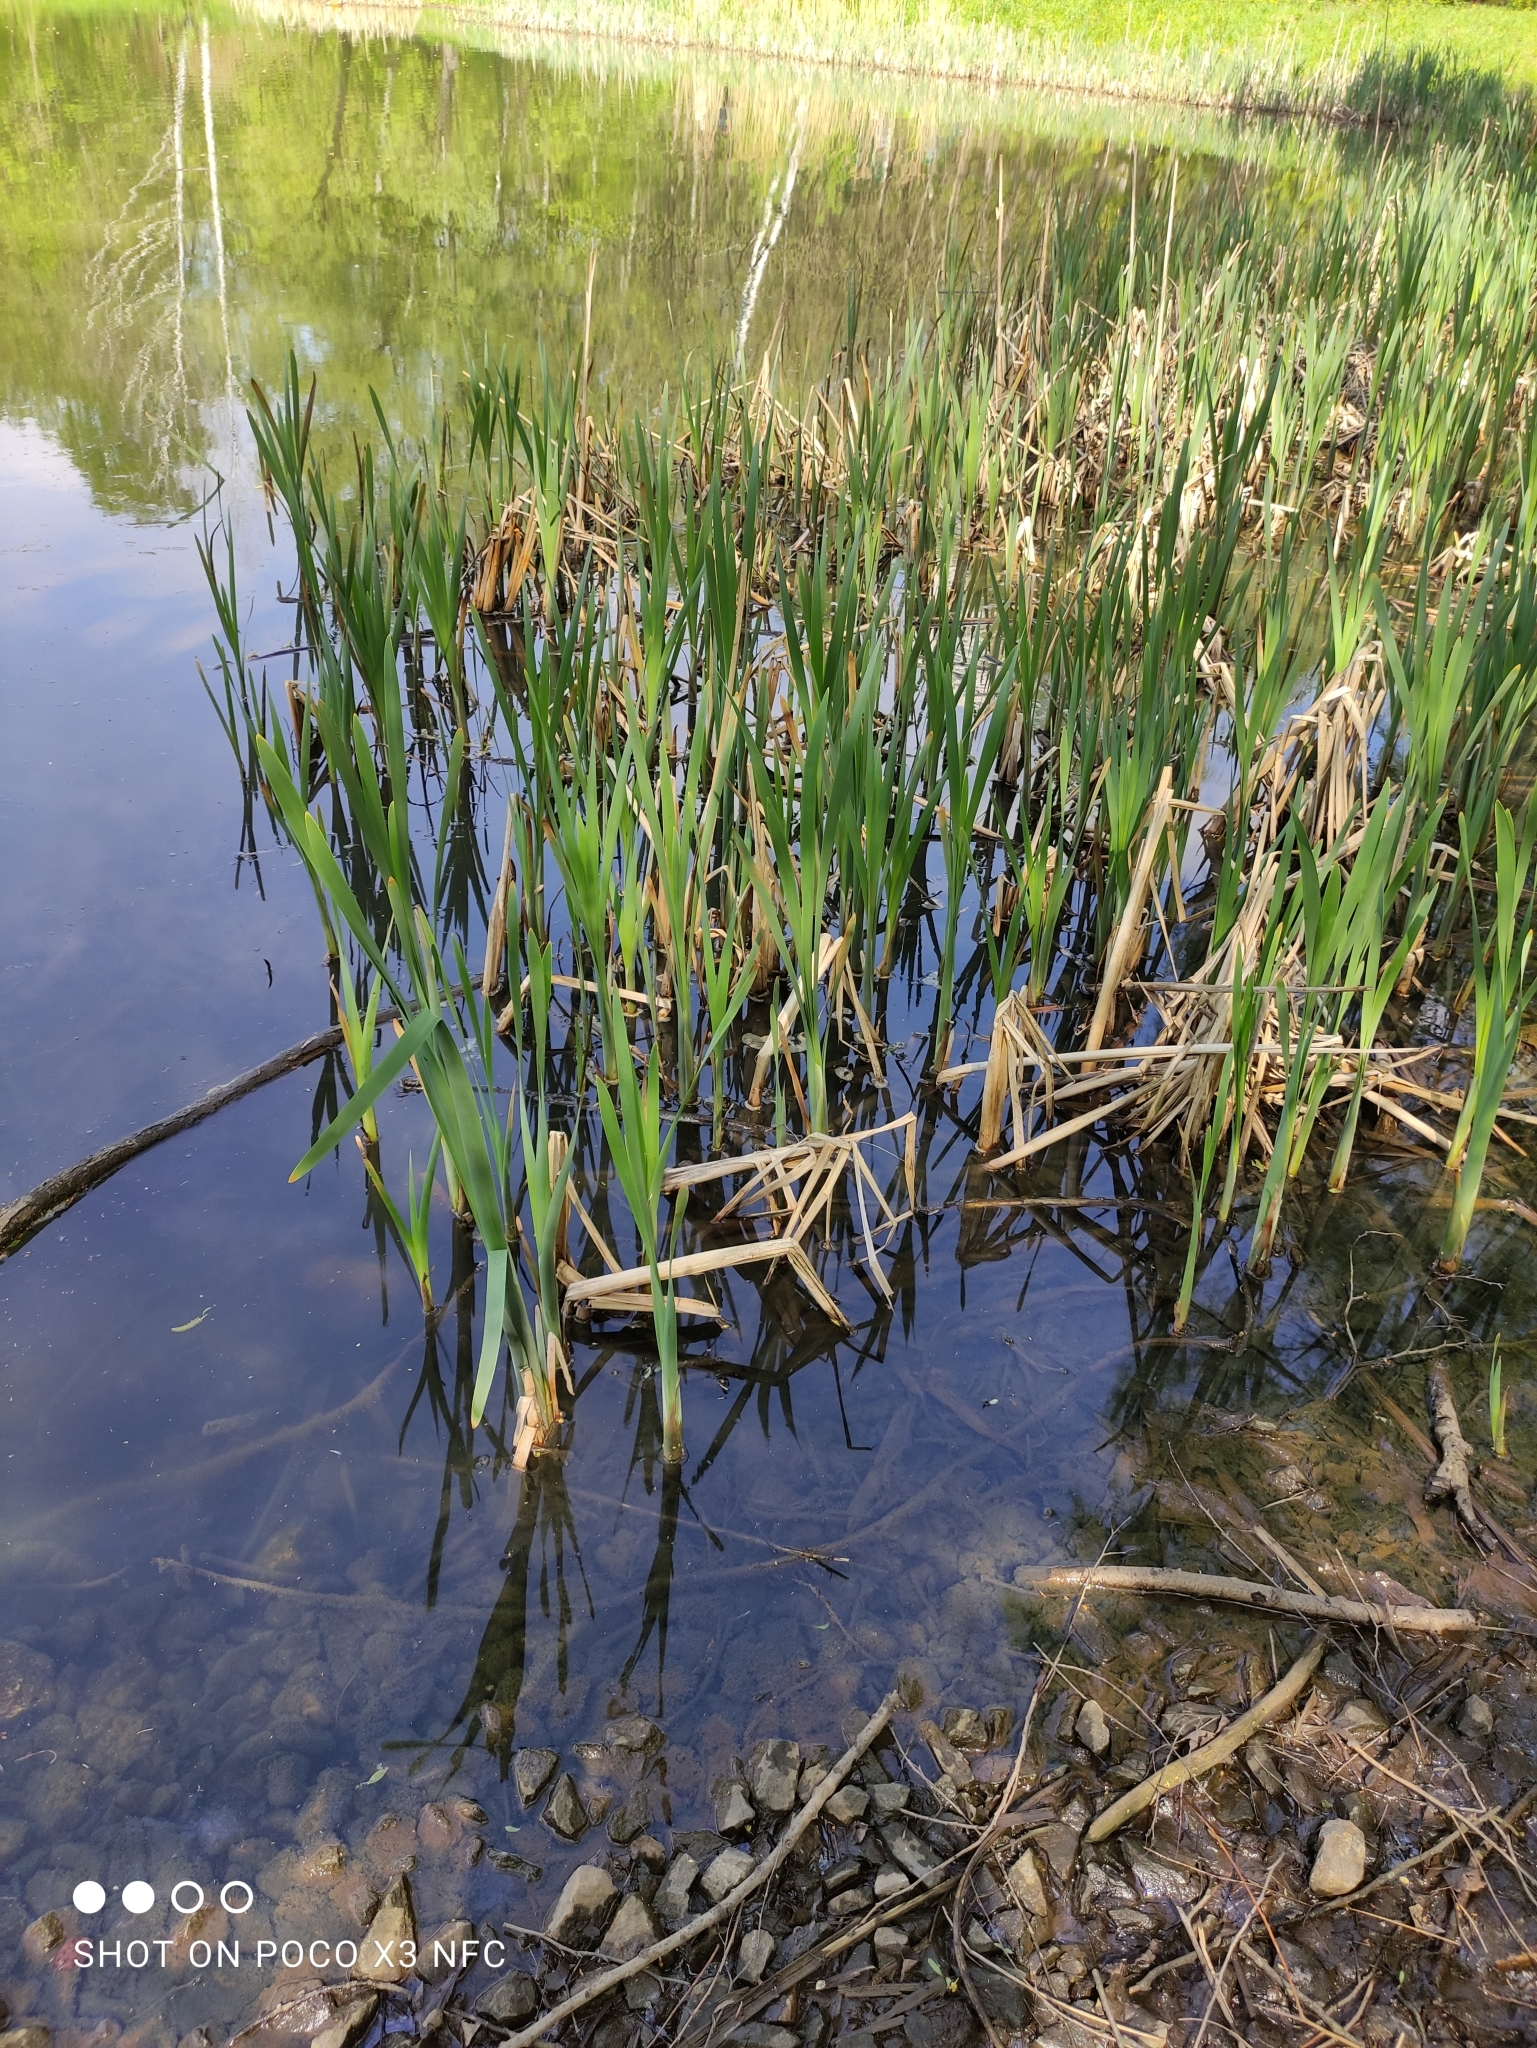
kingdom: Plantae
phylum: Tracheophyta
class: Liliopsida
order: Poales
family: Typhaceae
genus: Typha
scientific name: Typha latifolia
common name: Broadleaf cattail
